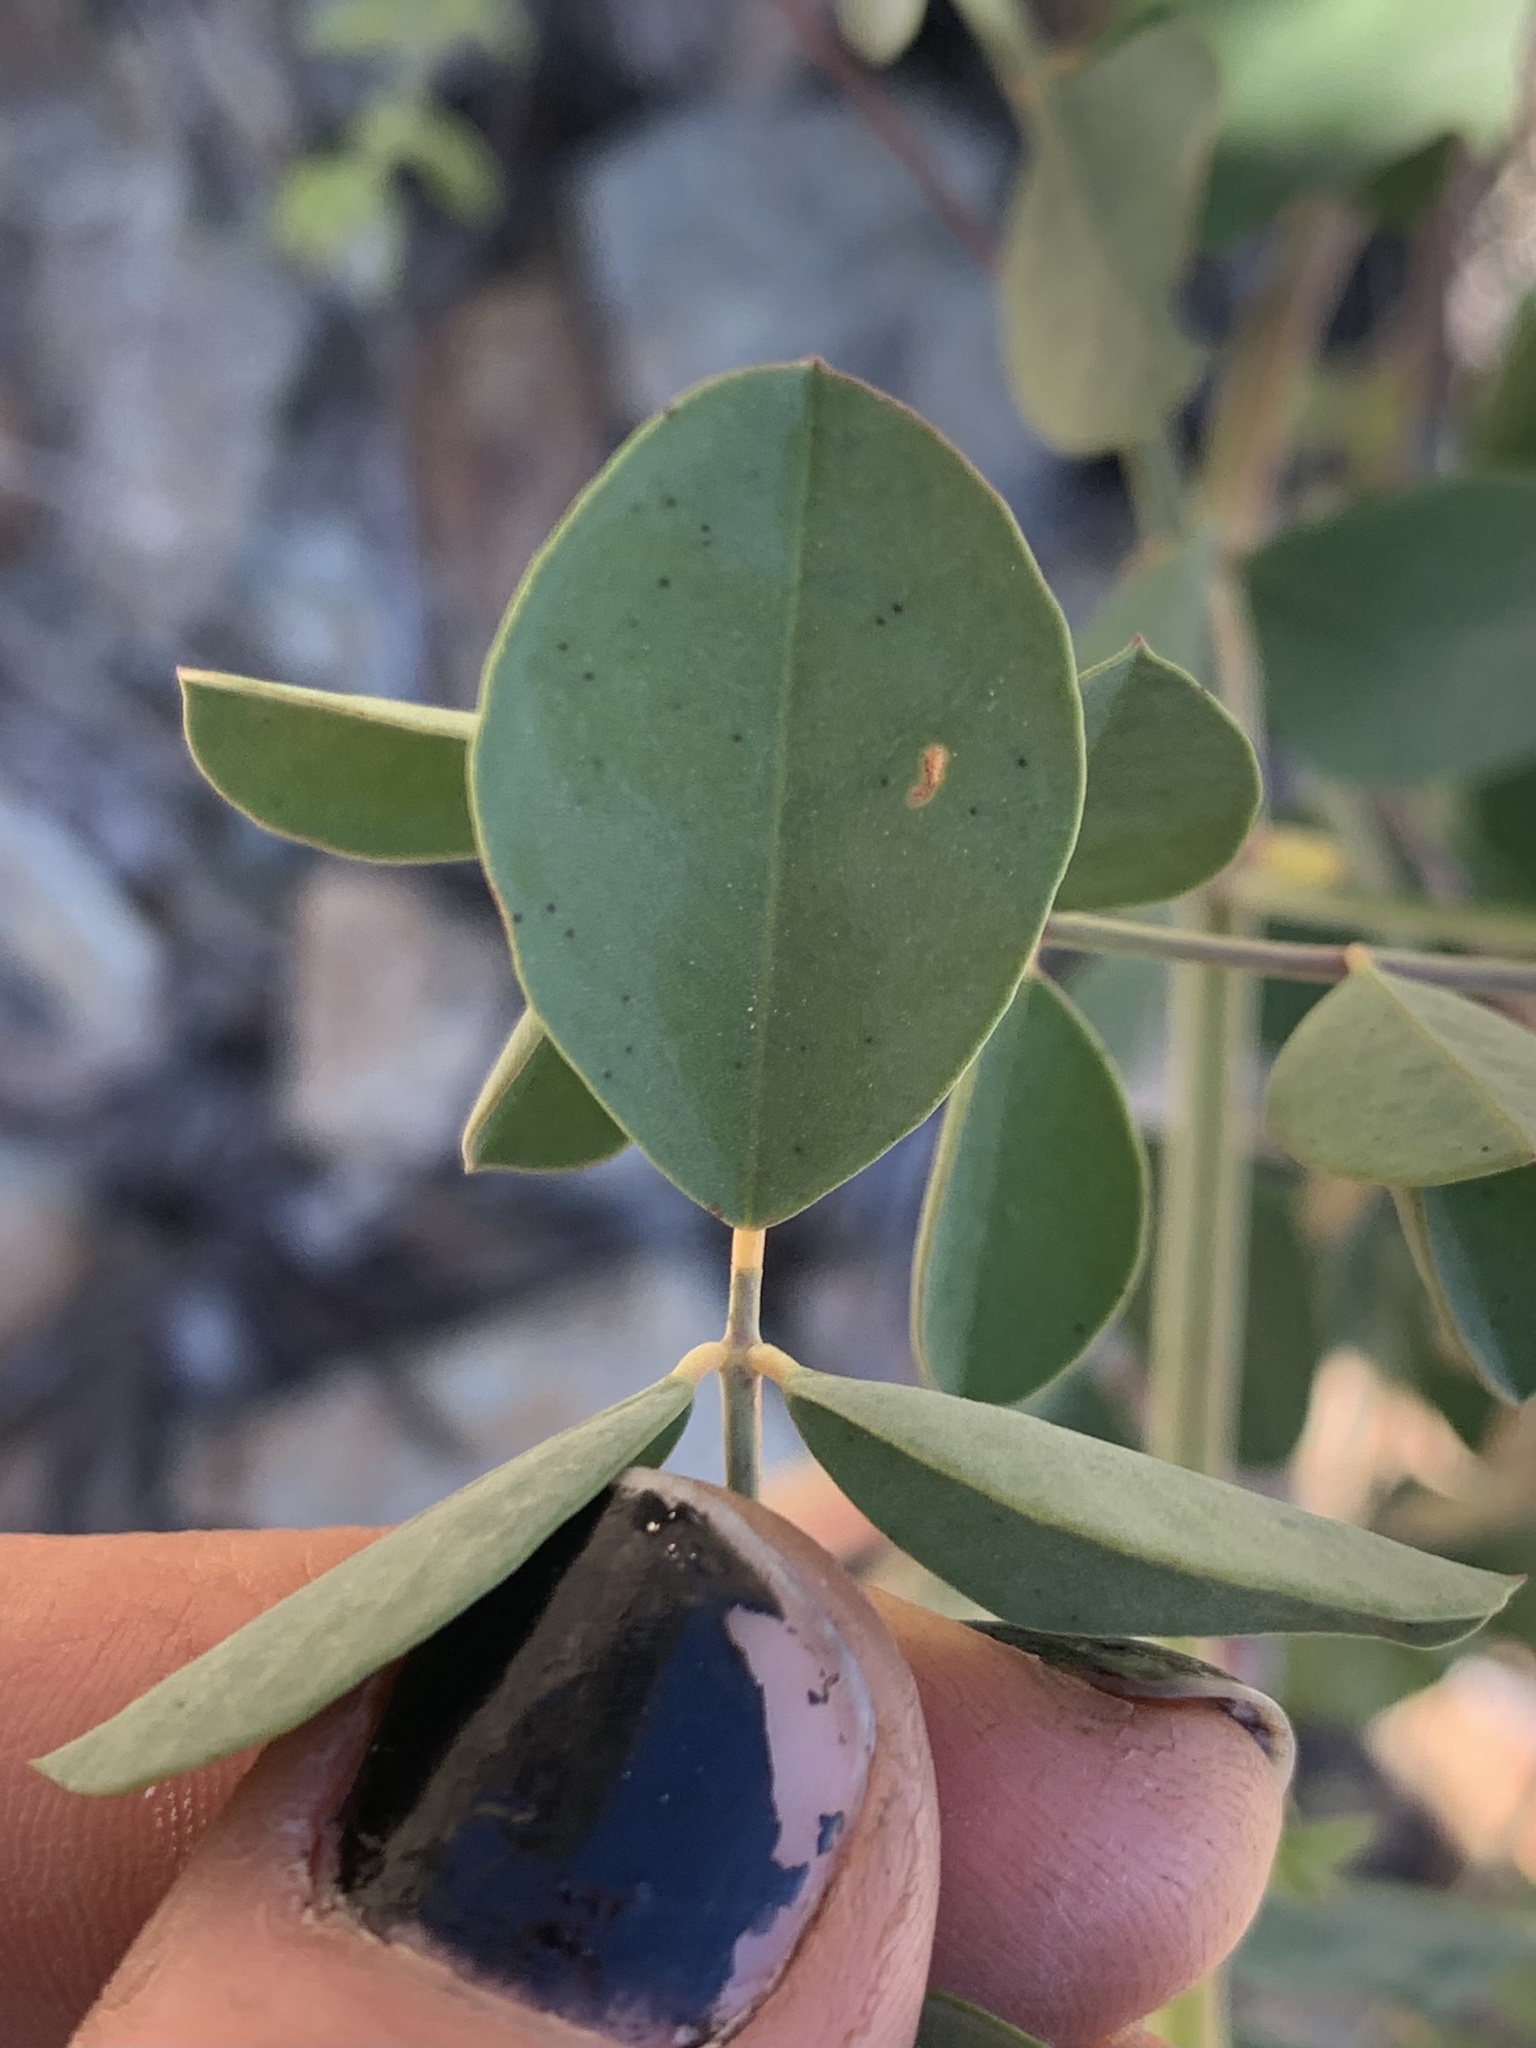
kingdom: Plantae
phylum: Tracheophyta
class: Magnoliopsida
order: Fabales
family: Fabaceae
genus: Hosackia
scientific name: Hosackia crassifolia
